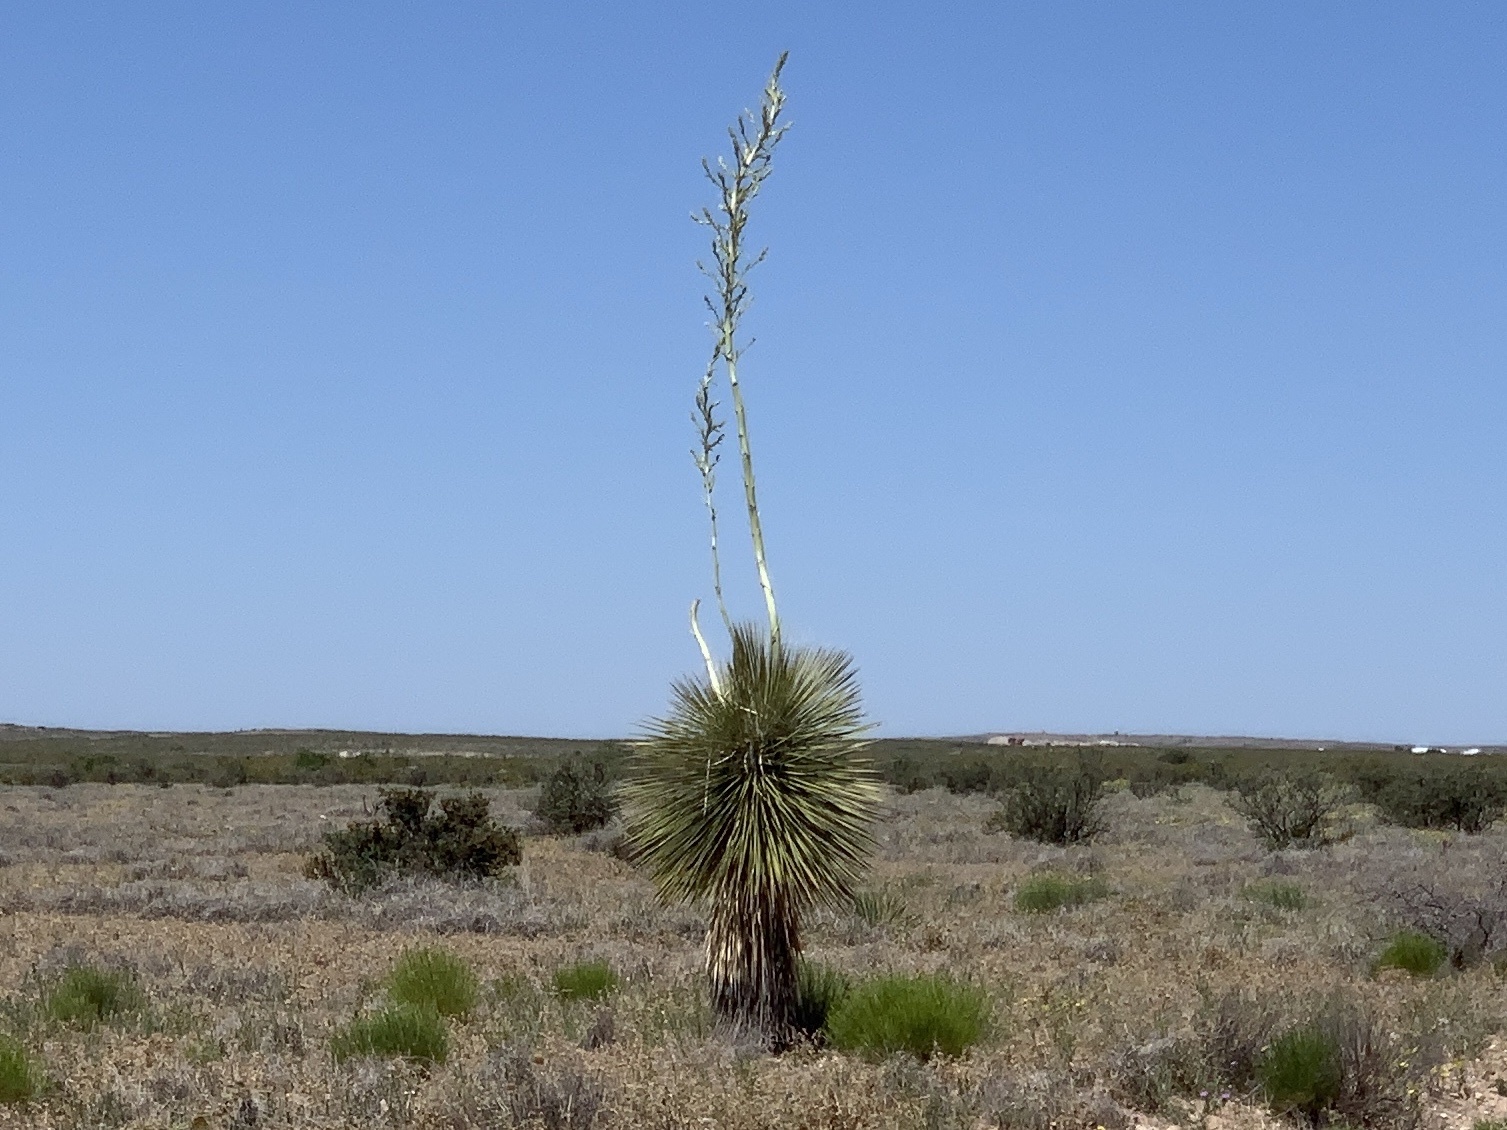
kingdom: Plantae
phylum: Tracheophyta
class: Liliopsida
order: Asparagales
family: Asparagaceae
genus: Yucca
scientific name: Yucca elata
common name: Palmella
